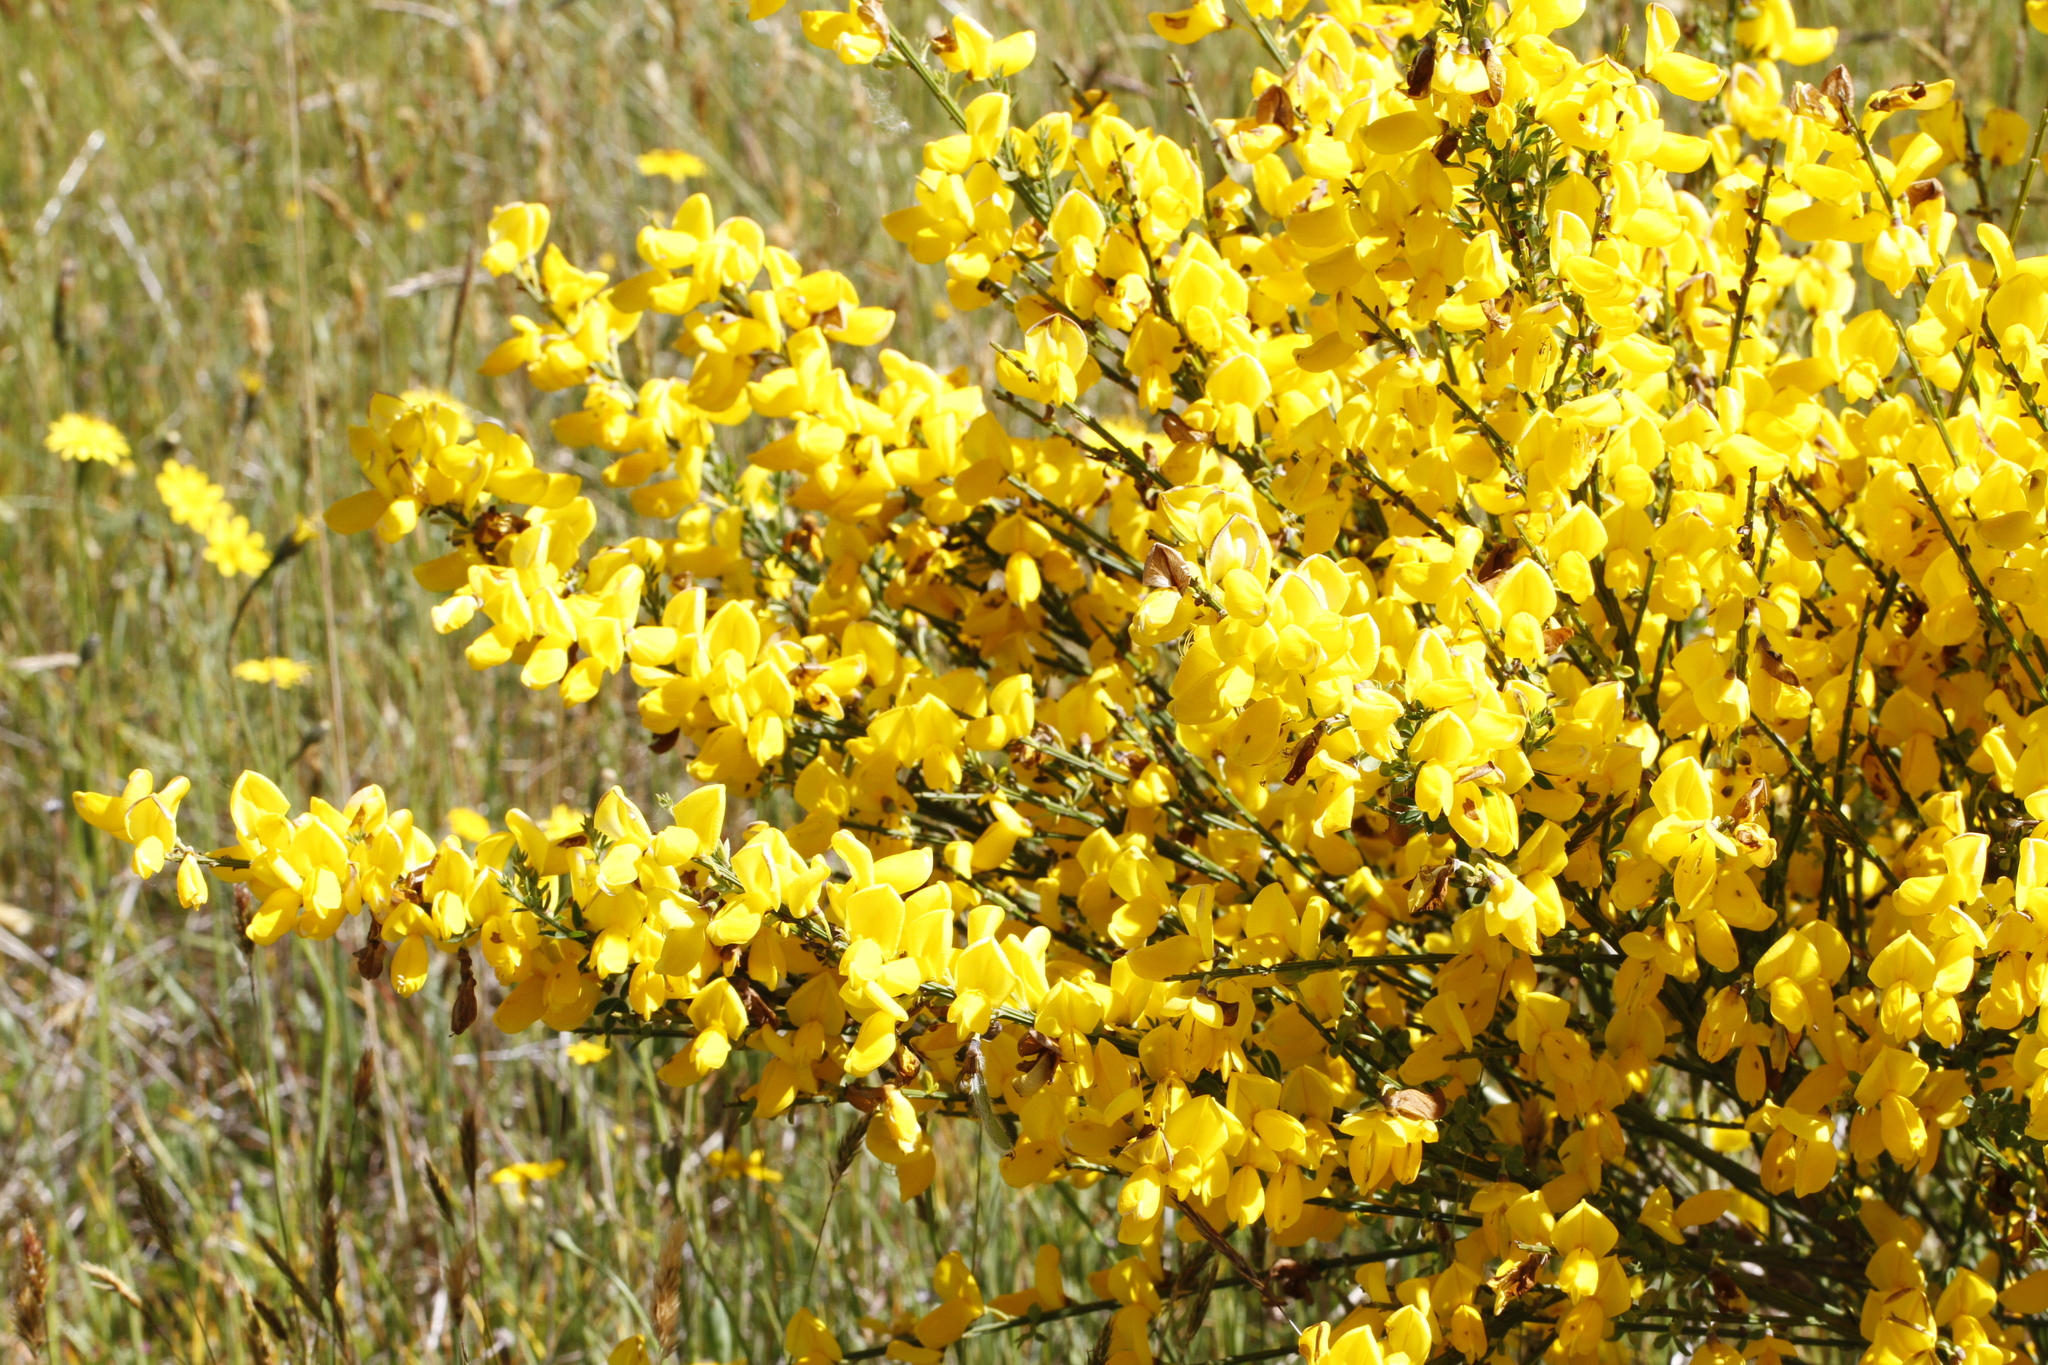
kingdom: Plantae
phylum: Tracheophyta
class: Magnoliopsida
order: Fabales
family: Fabaceae
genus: Cytisus
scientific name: Cytisus scoparius
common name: Scotch broom
